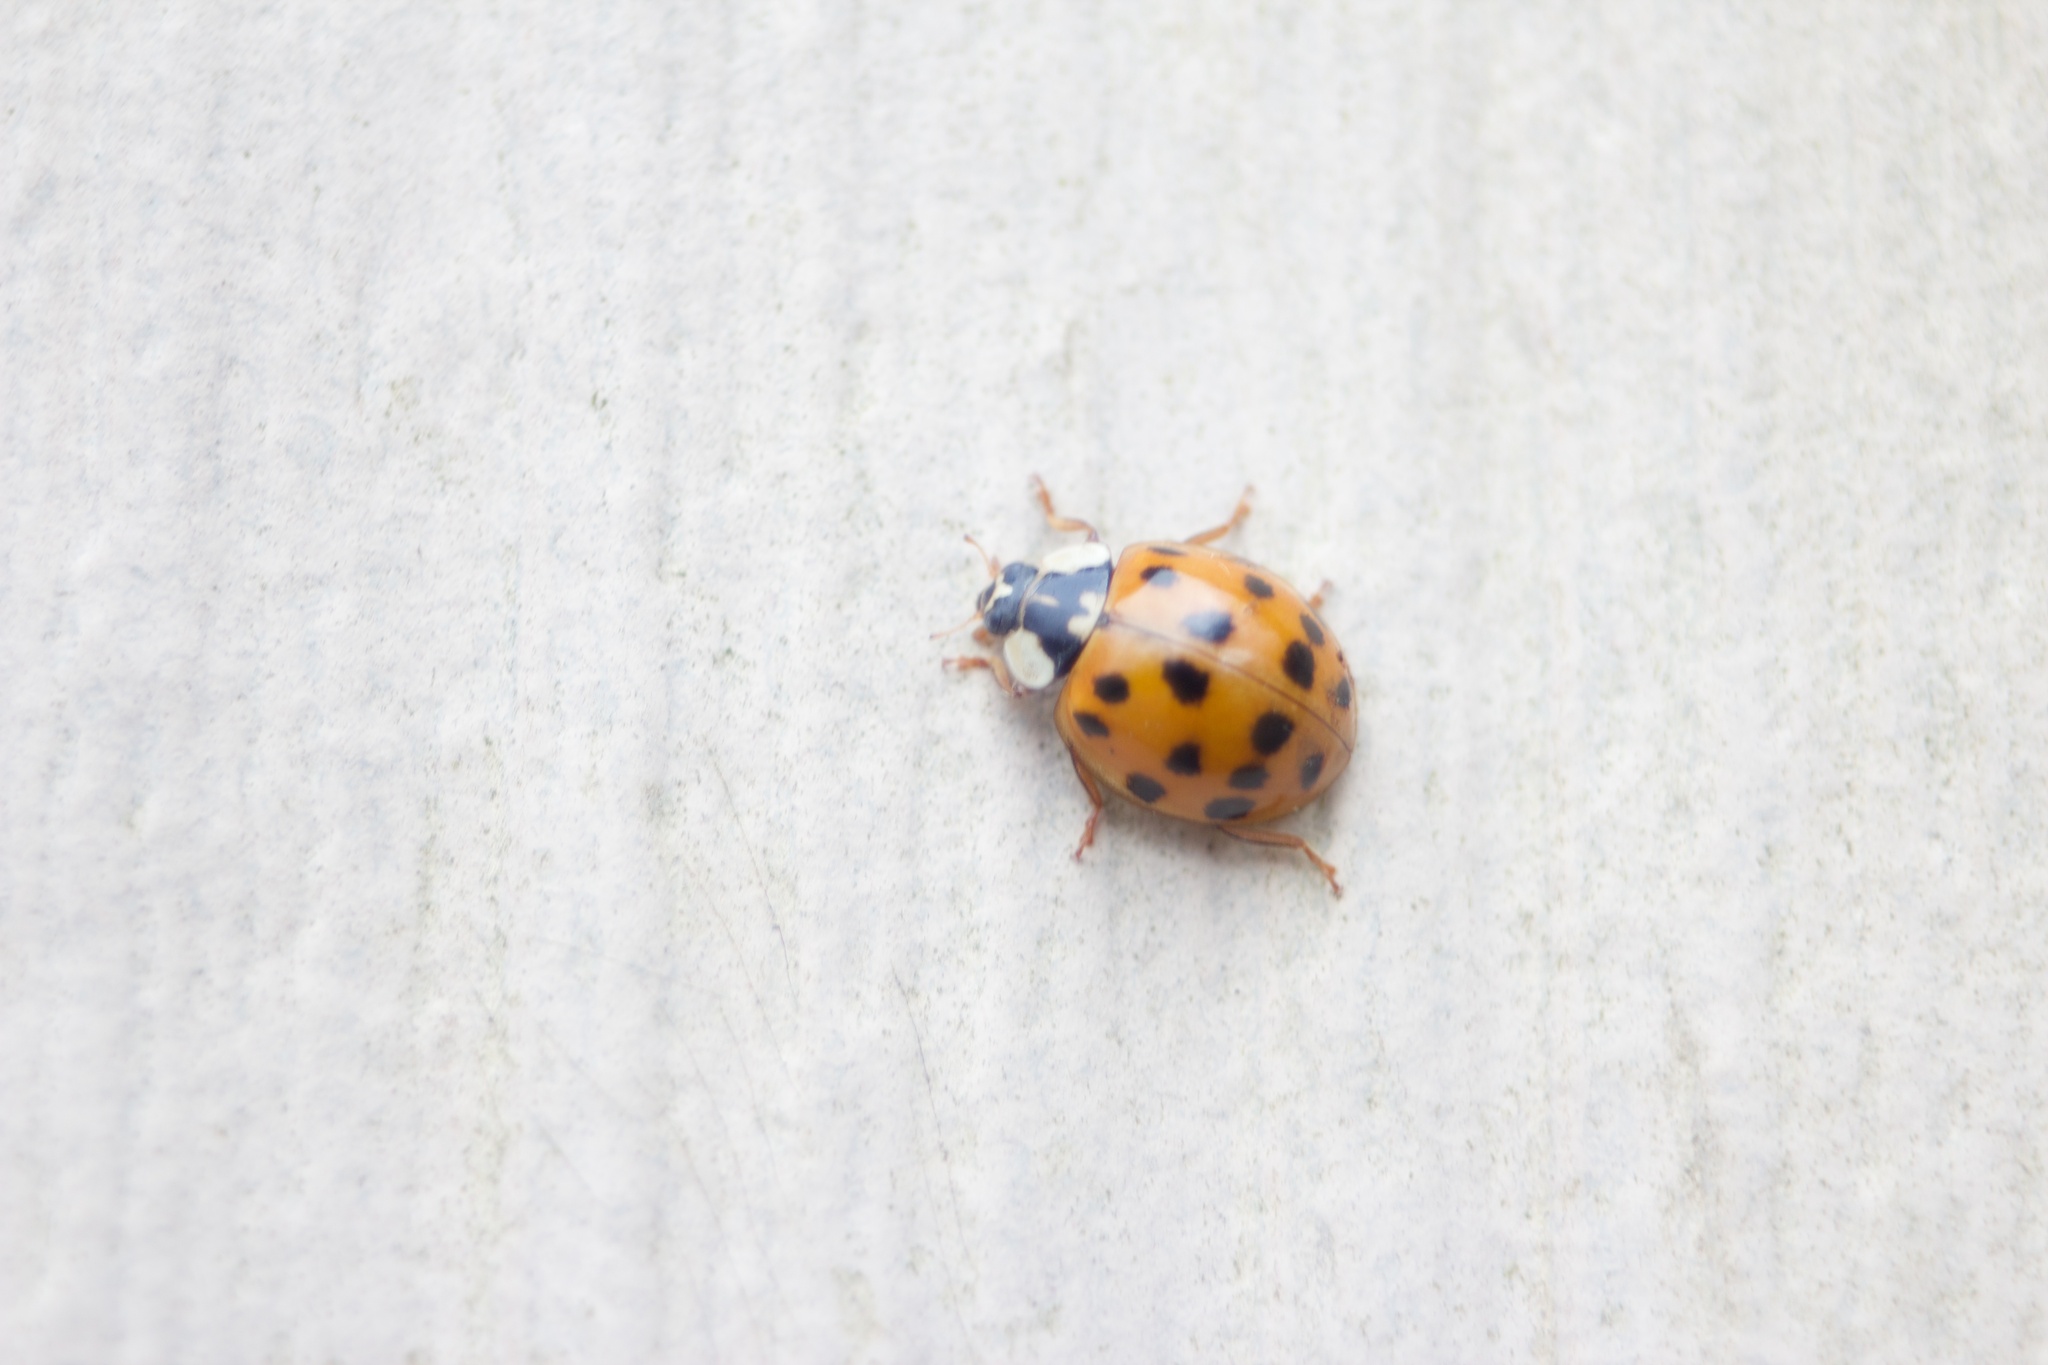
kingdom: Animalia
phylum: Arthropoda
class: Insecta
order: Coleoptera
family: Coccinellidae
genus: Harmonia
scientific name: Harmonia axyridis
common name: Harlequin ladybird
